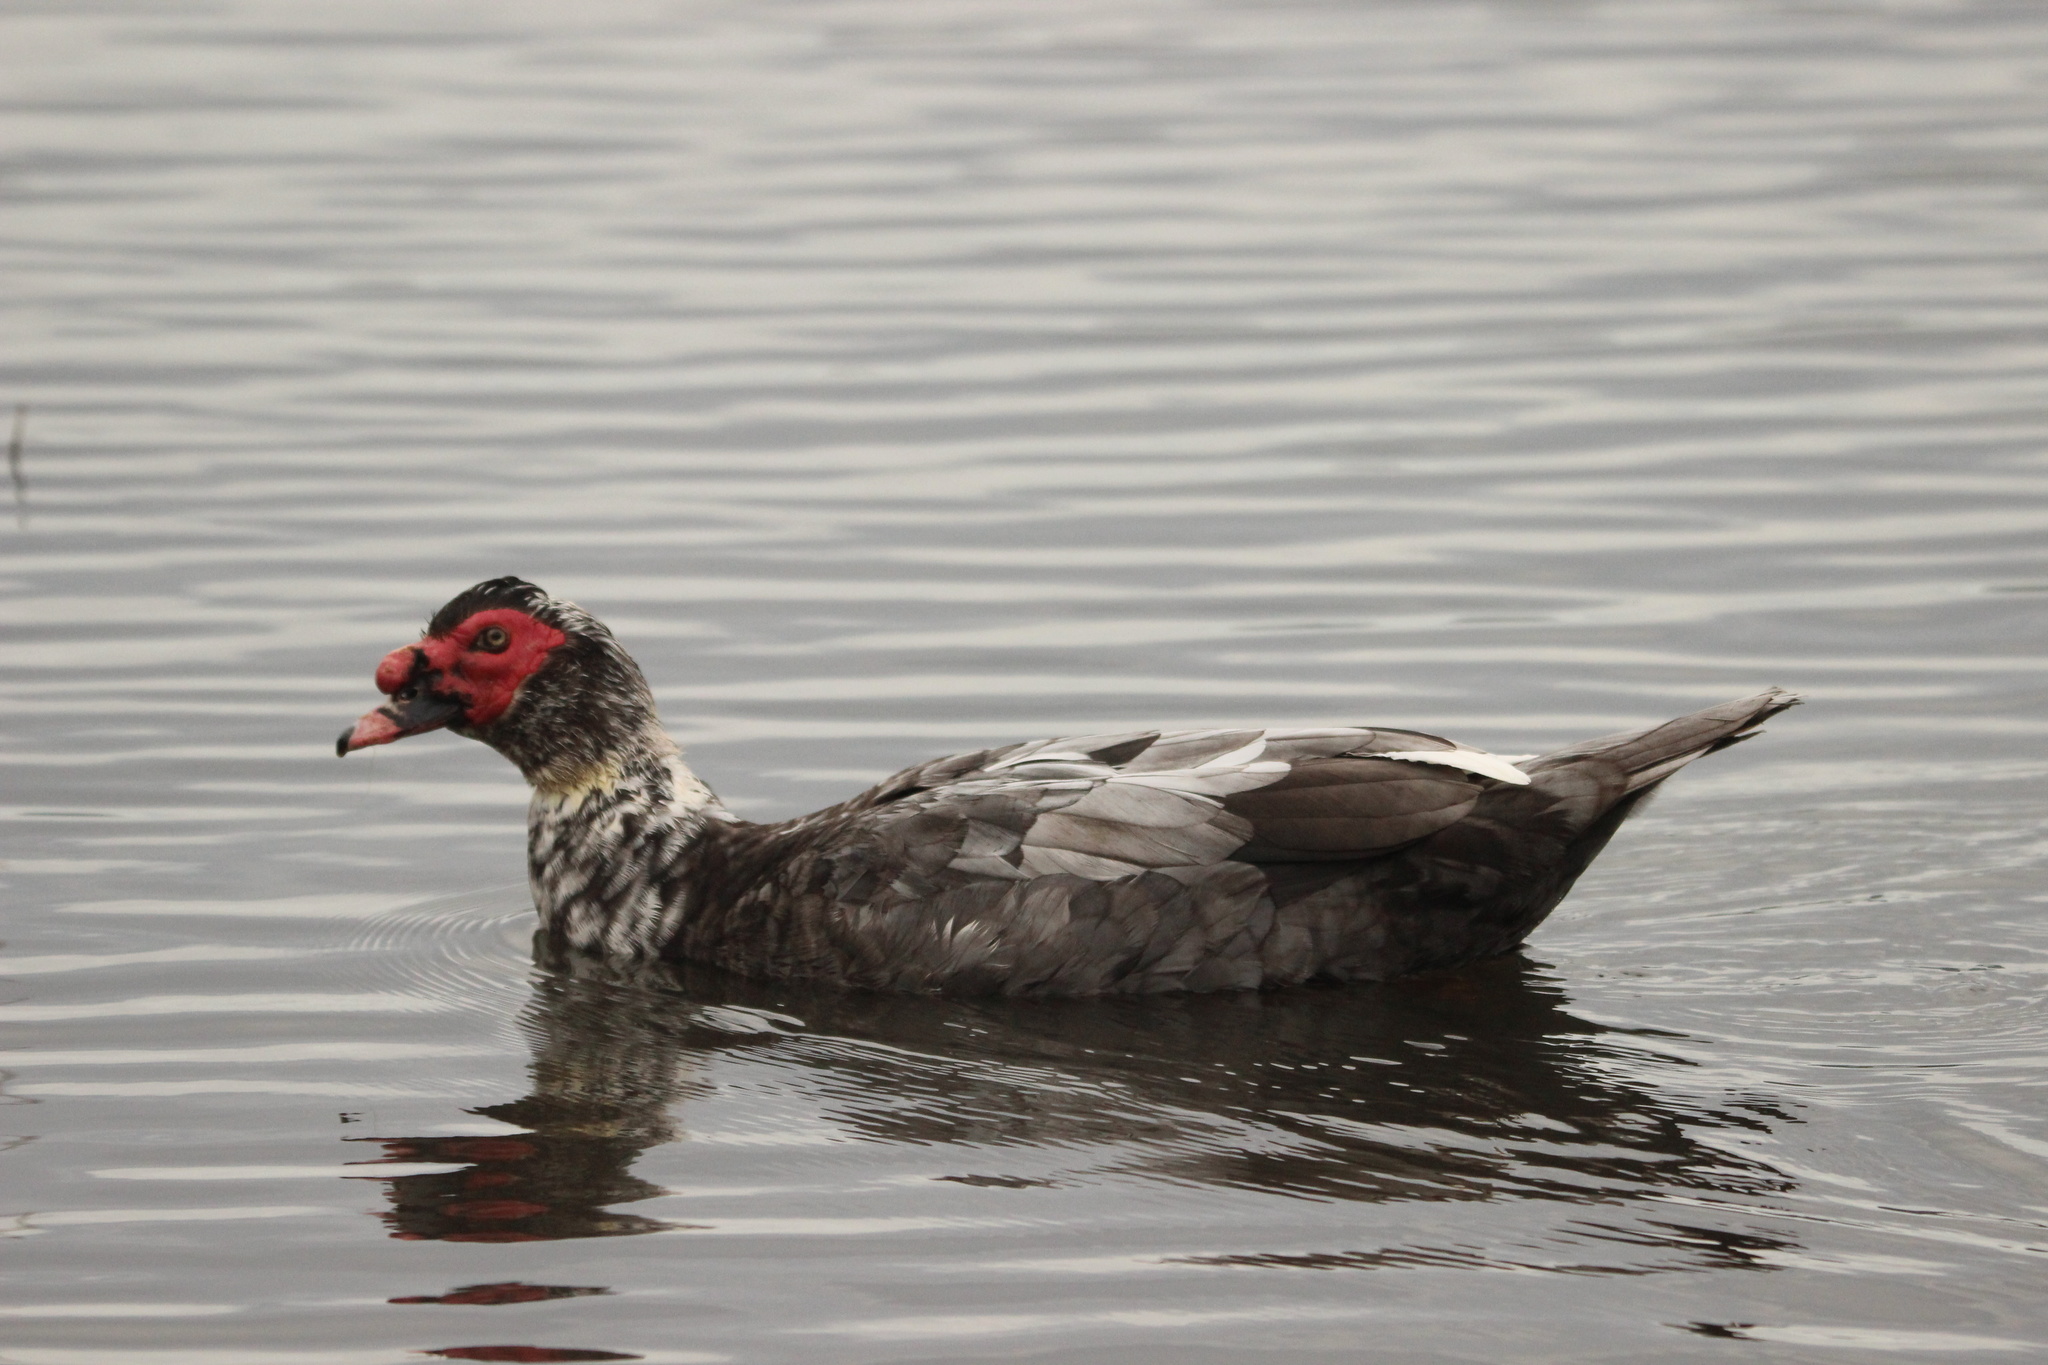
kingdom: Animalia
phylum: Chordata
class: Aves
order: Anseriformes
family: Anatidae
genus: Cairina
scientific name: Cairina moschata
